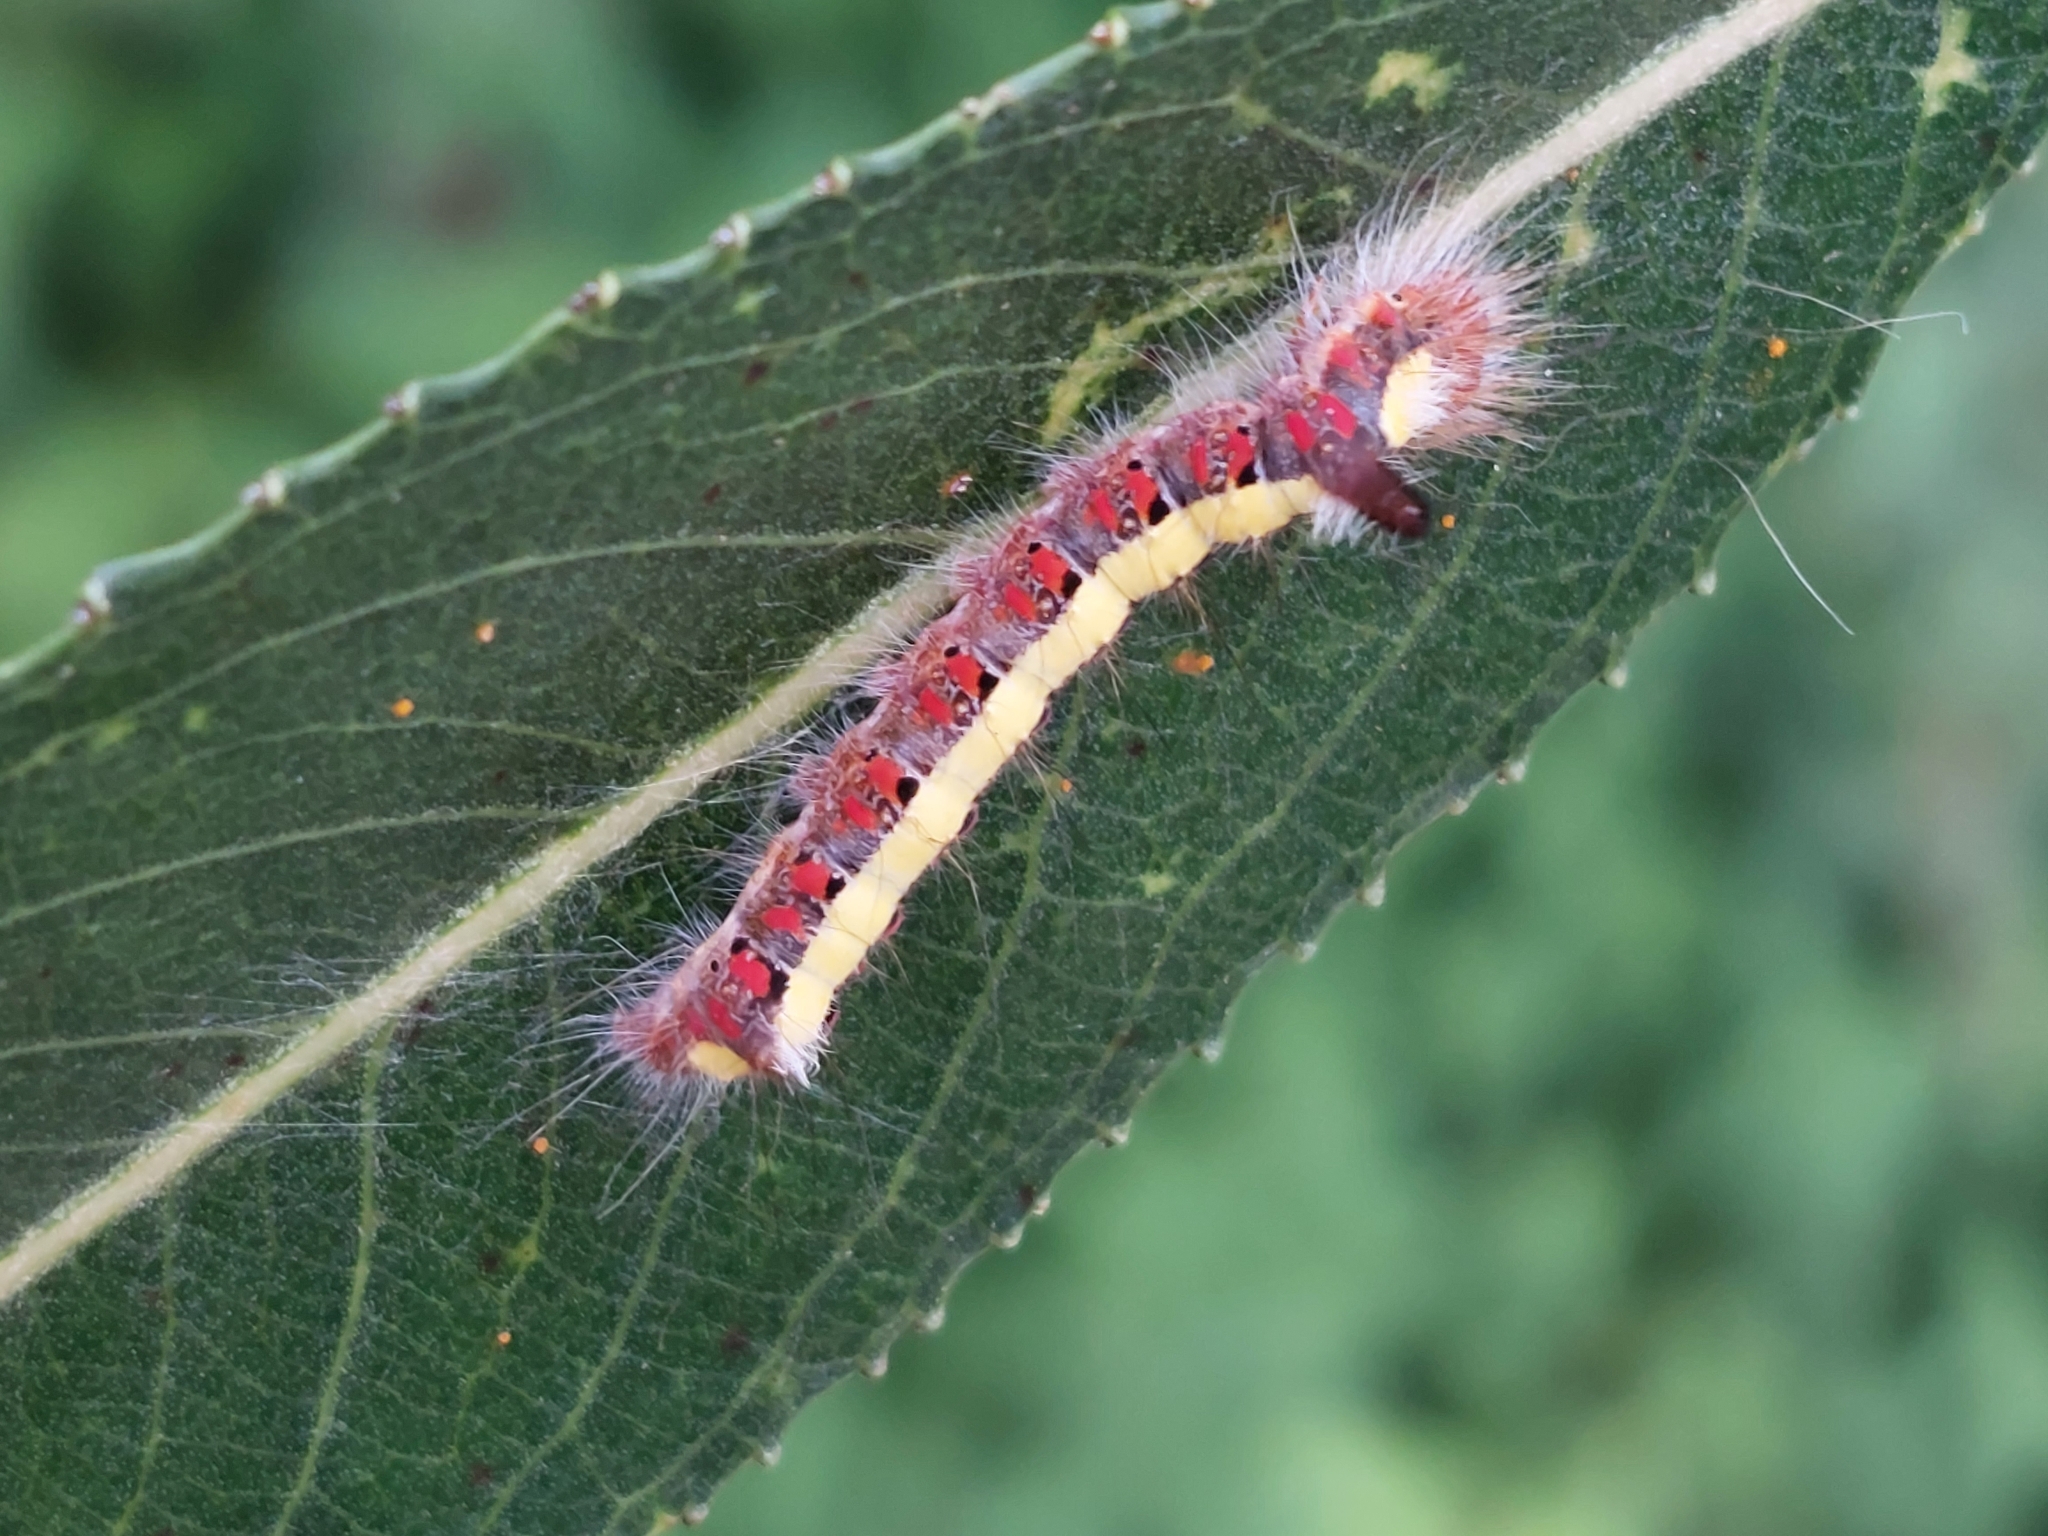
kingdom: Animalia
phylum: Arthropoda
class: Insecta
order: Lepidoptera
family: Noctuidae
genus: Acronicta
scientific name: Acronicta psi
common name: Grey dagger
